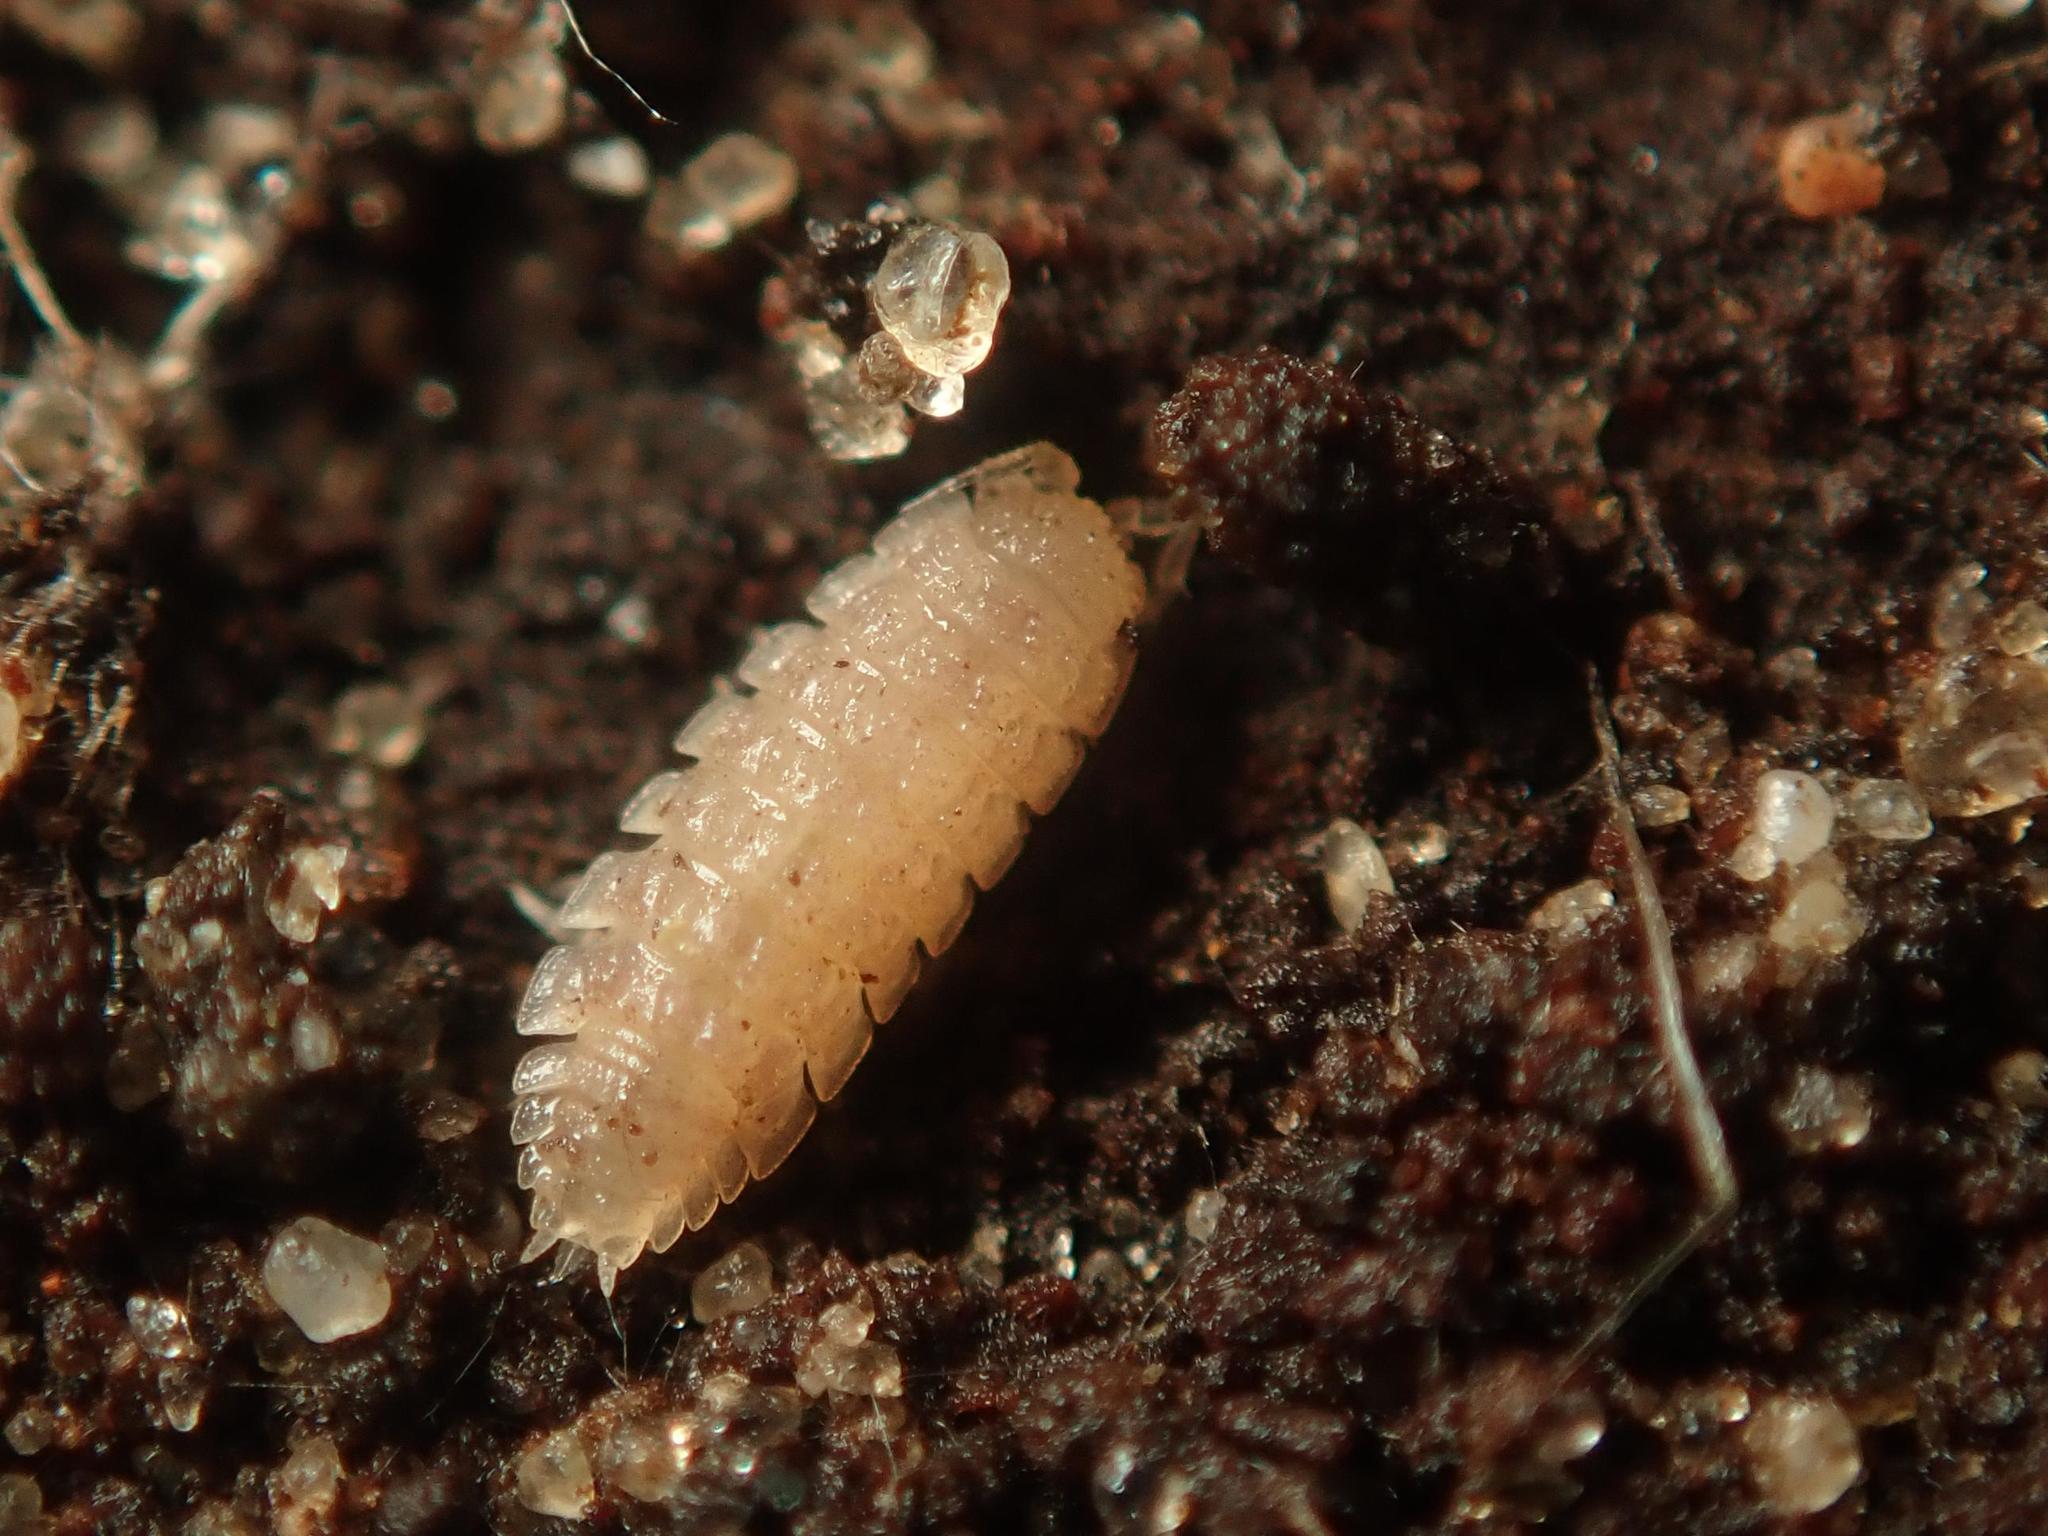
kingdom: Animalia
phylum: Arthropoda
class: Malacostraca
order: Isopoda
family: Trichoniscidae
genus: Haplophthalmus
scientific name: Haplophthalmus danicus
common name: Pillbug
